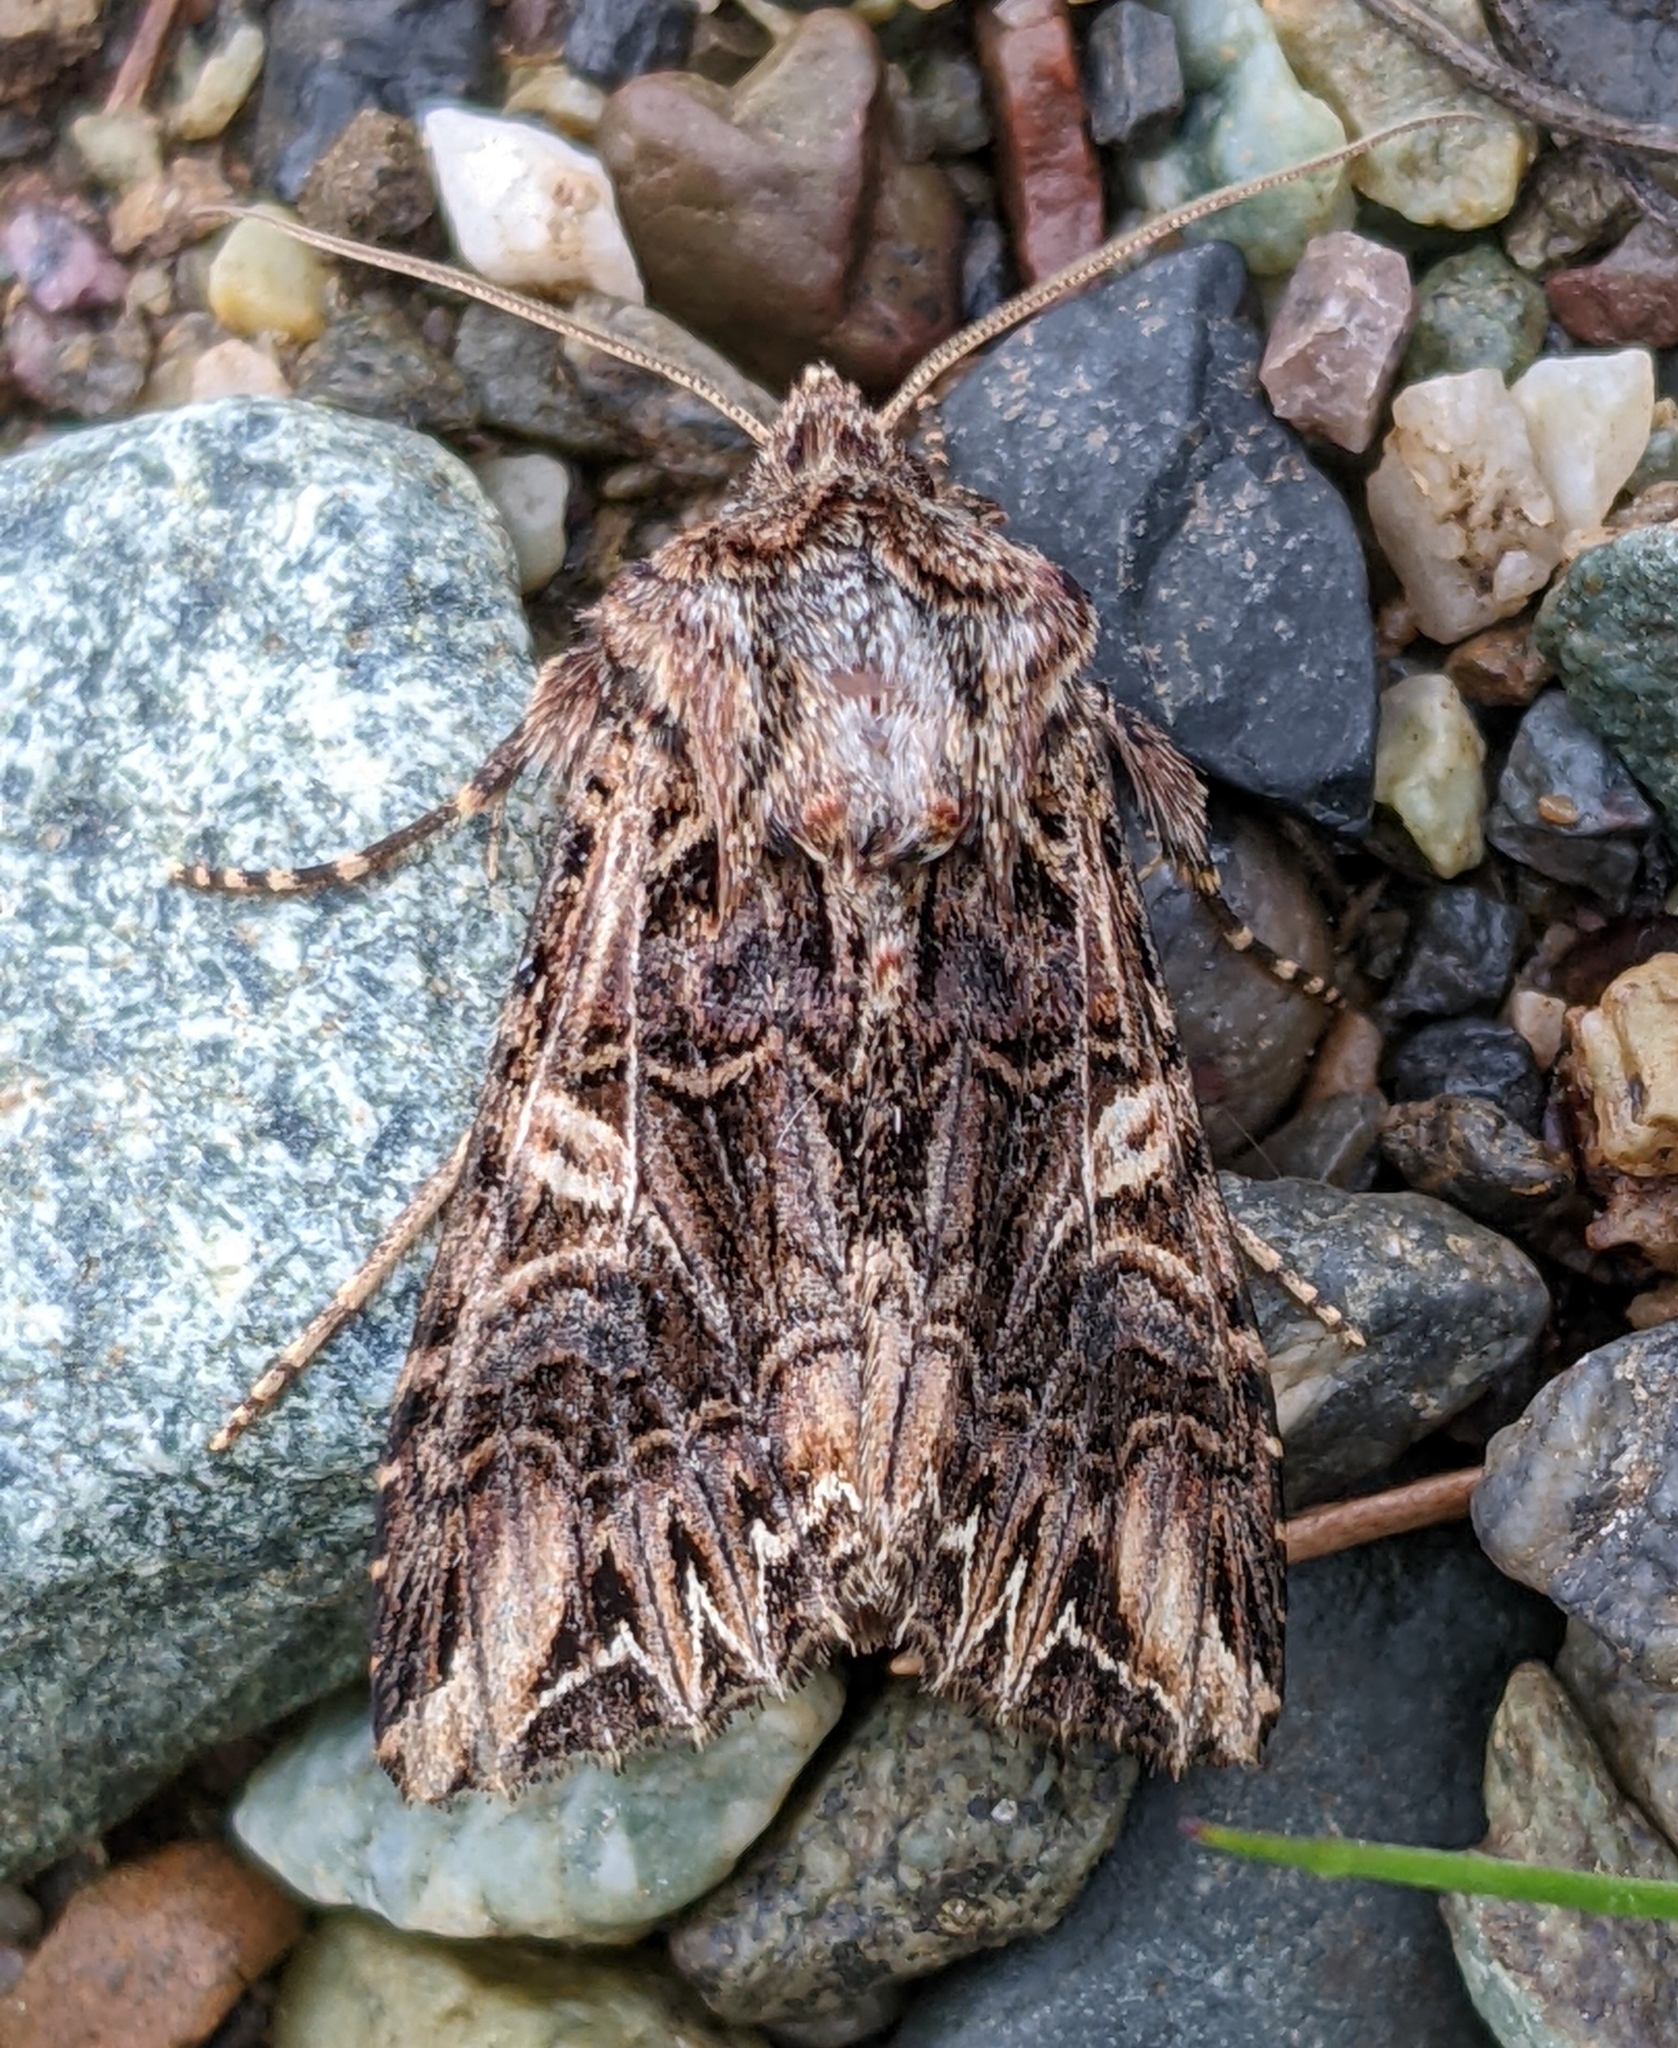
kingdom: Animalia
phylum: Arthropoda
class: Insecta
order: Lepidoptera
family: Noctuidae
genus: Anarta
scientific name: Anarta farnhami
